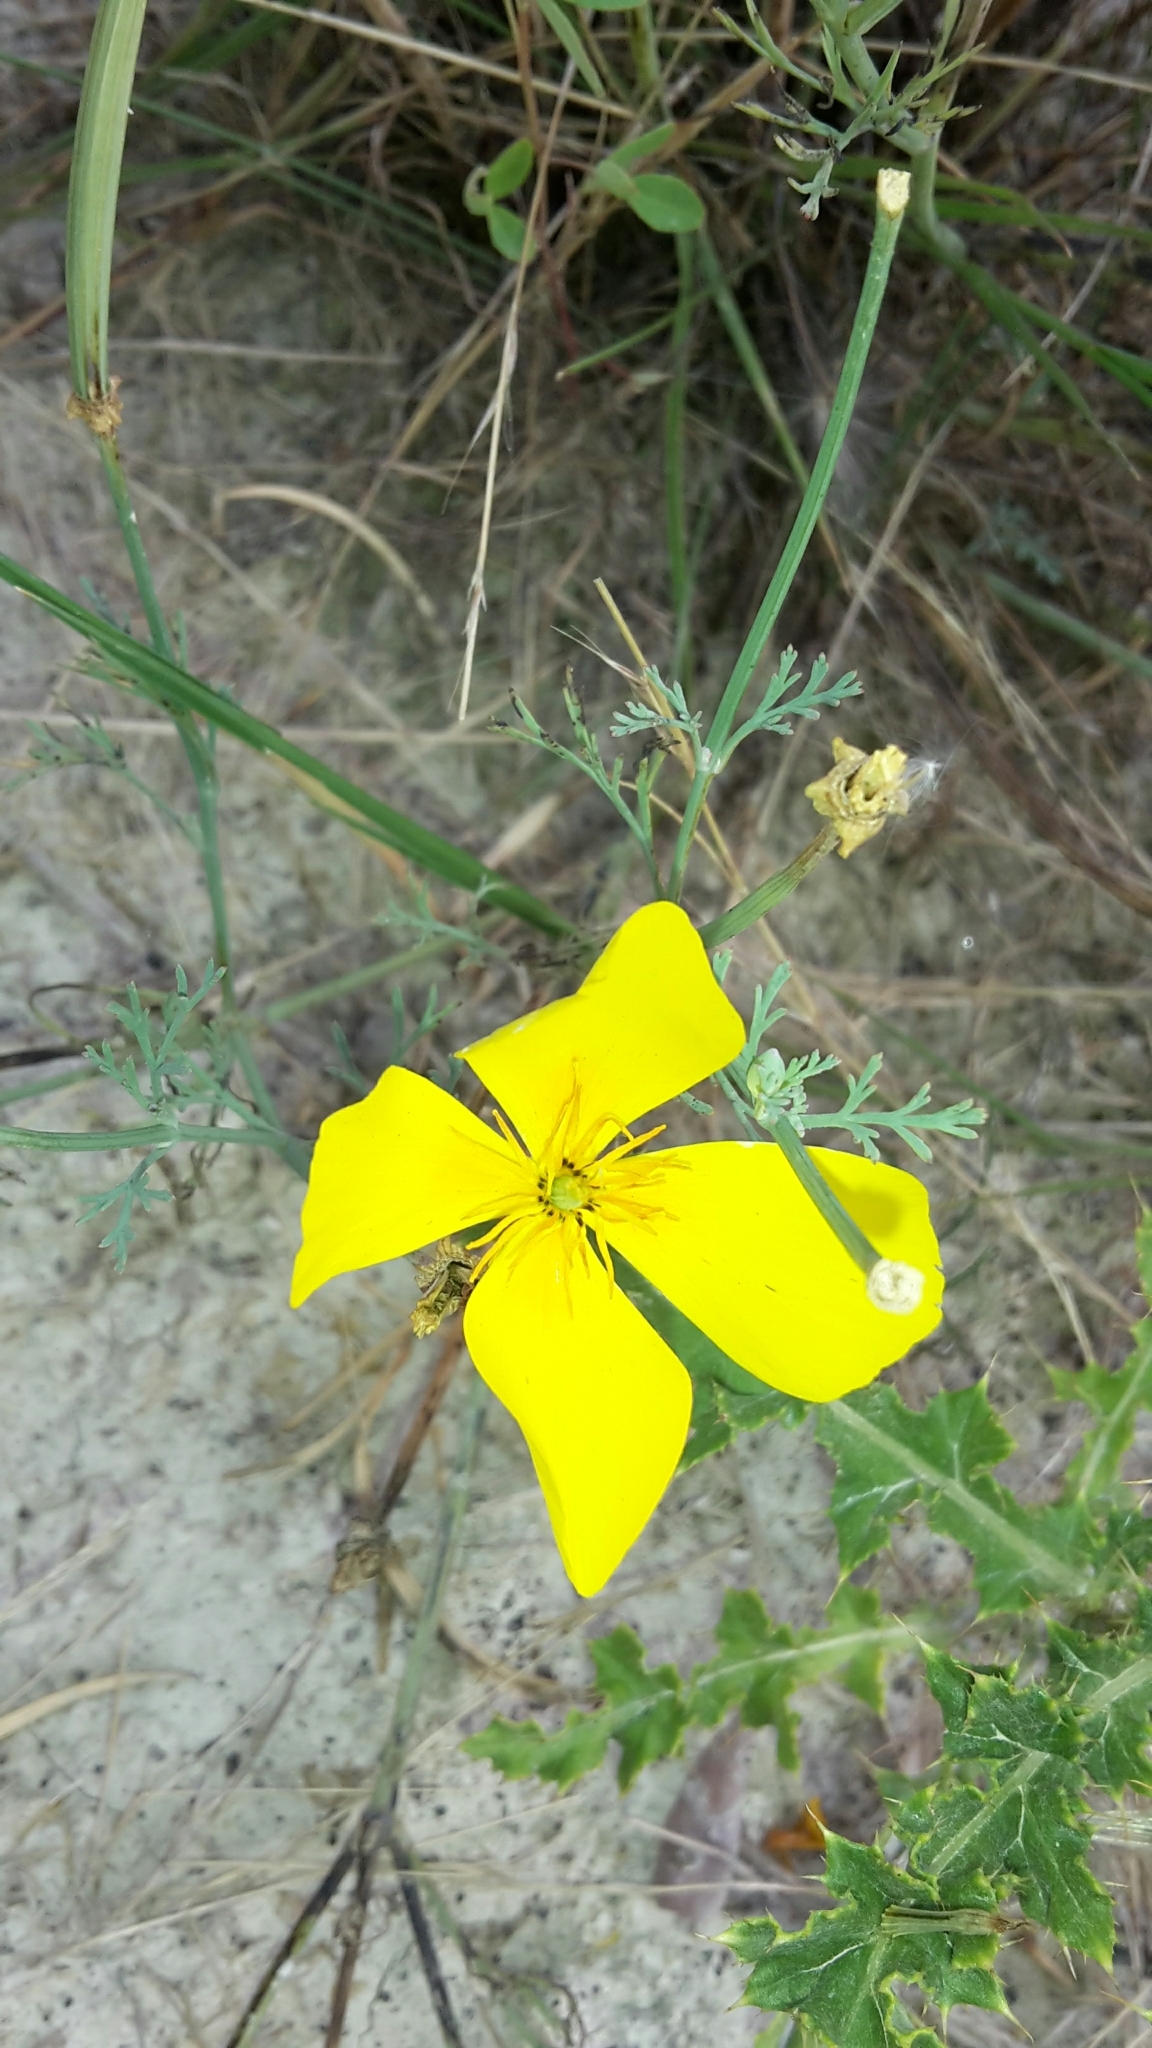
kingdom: Plantae
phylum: Tracheophyta
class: Magnoliopsida
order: Ranunculales
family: Papaveraceae
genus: Eschscholzia
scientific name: Eschscholzia californica
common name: California poppy
